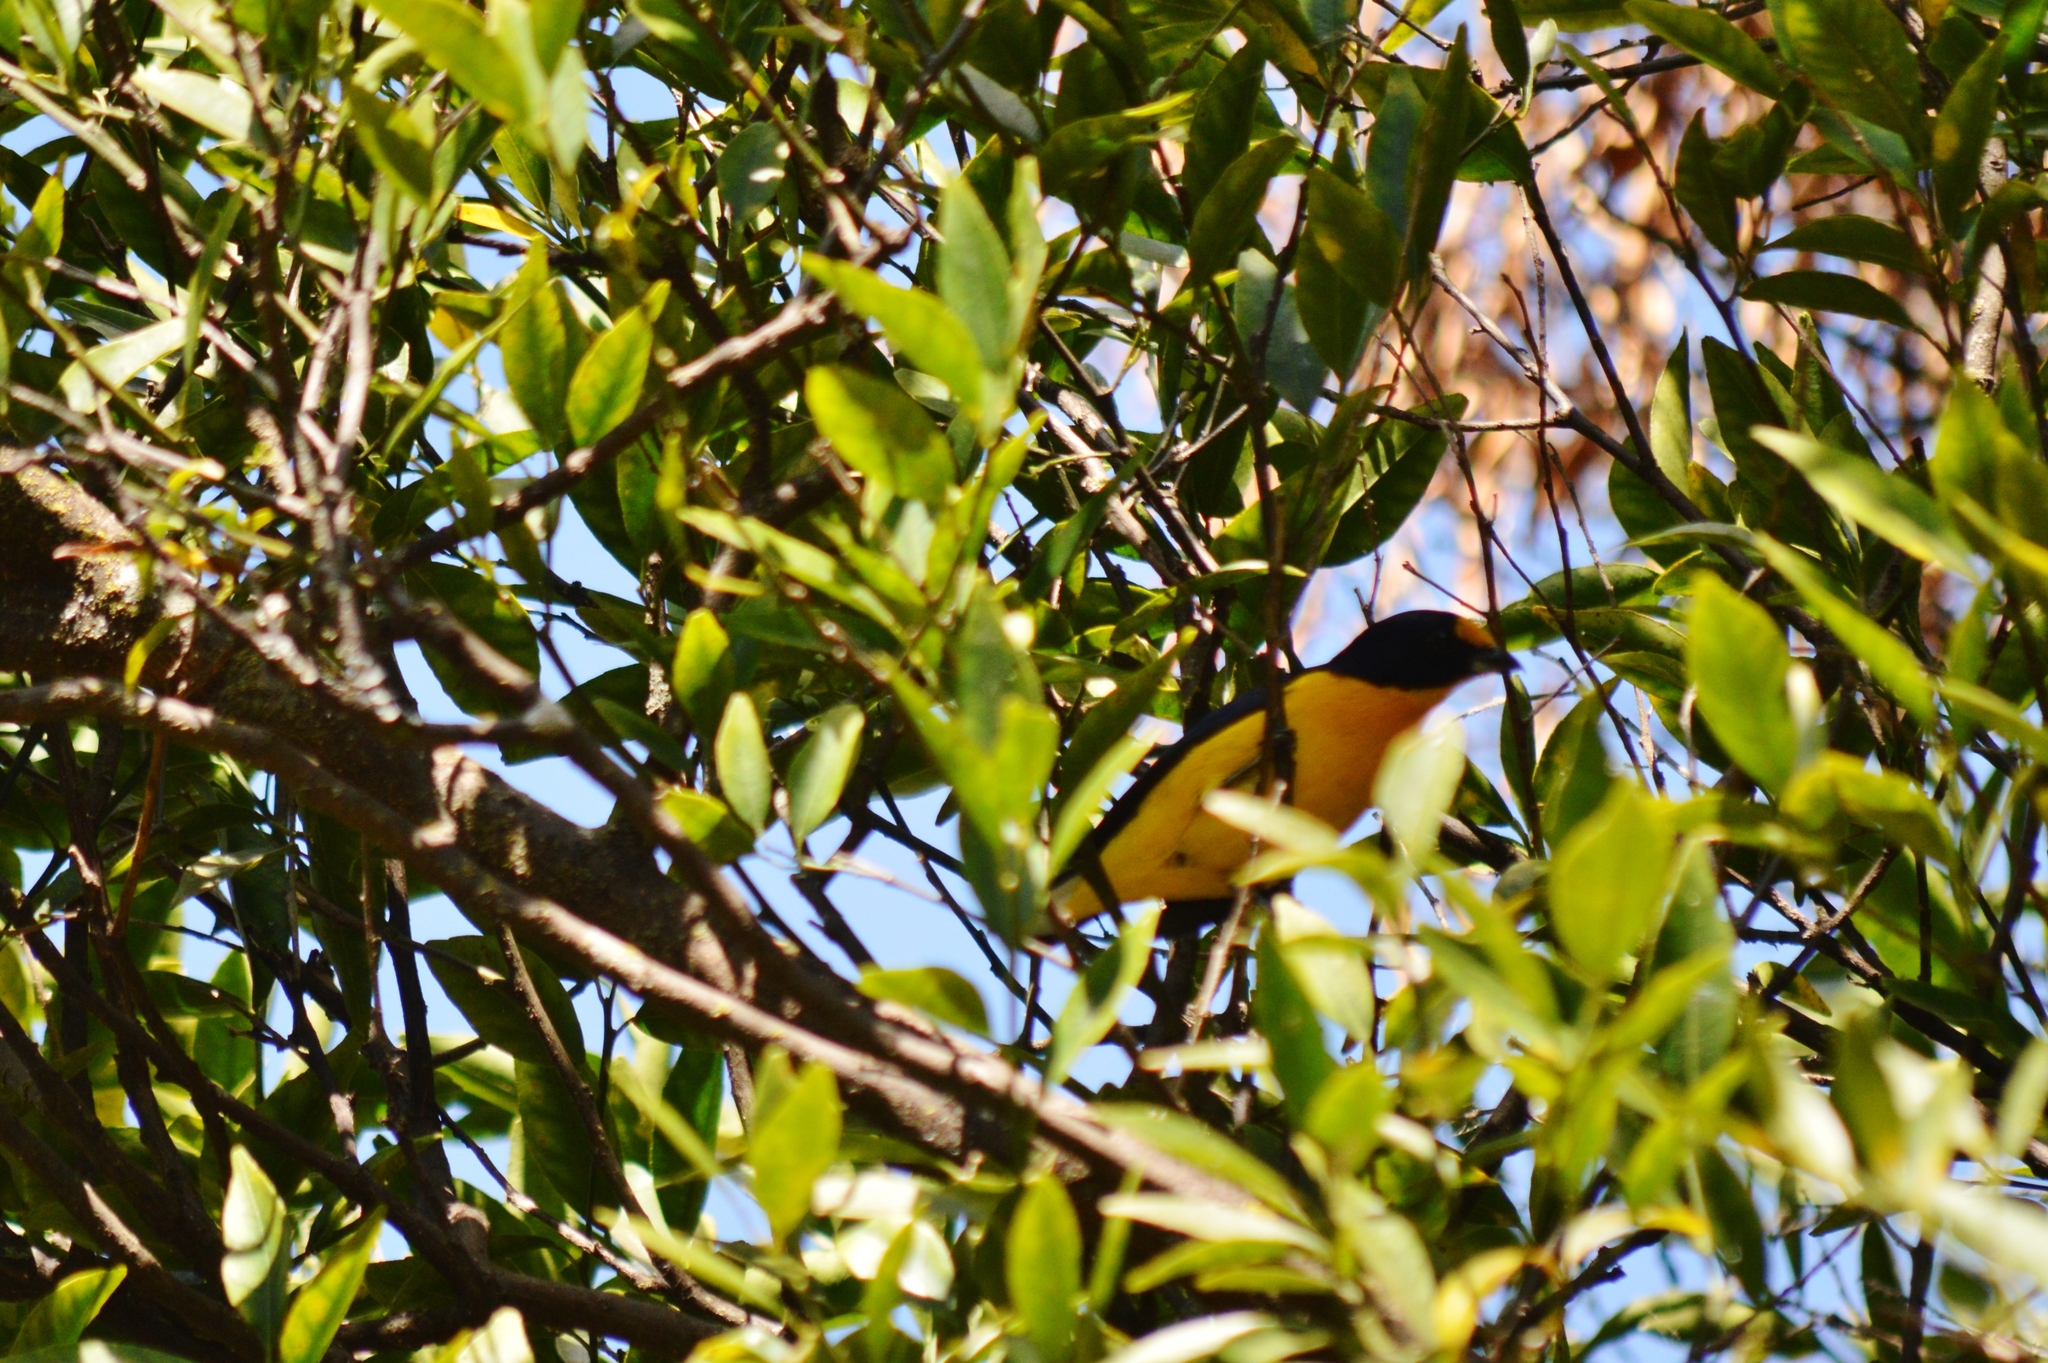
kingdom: Animalia
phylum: Chordata
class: Aves
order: Passeriformes
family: Fringillidae
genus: Euphonia
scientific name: Euphonia violacea
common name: Violaceous euphonia
